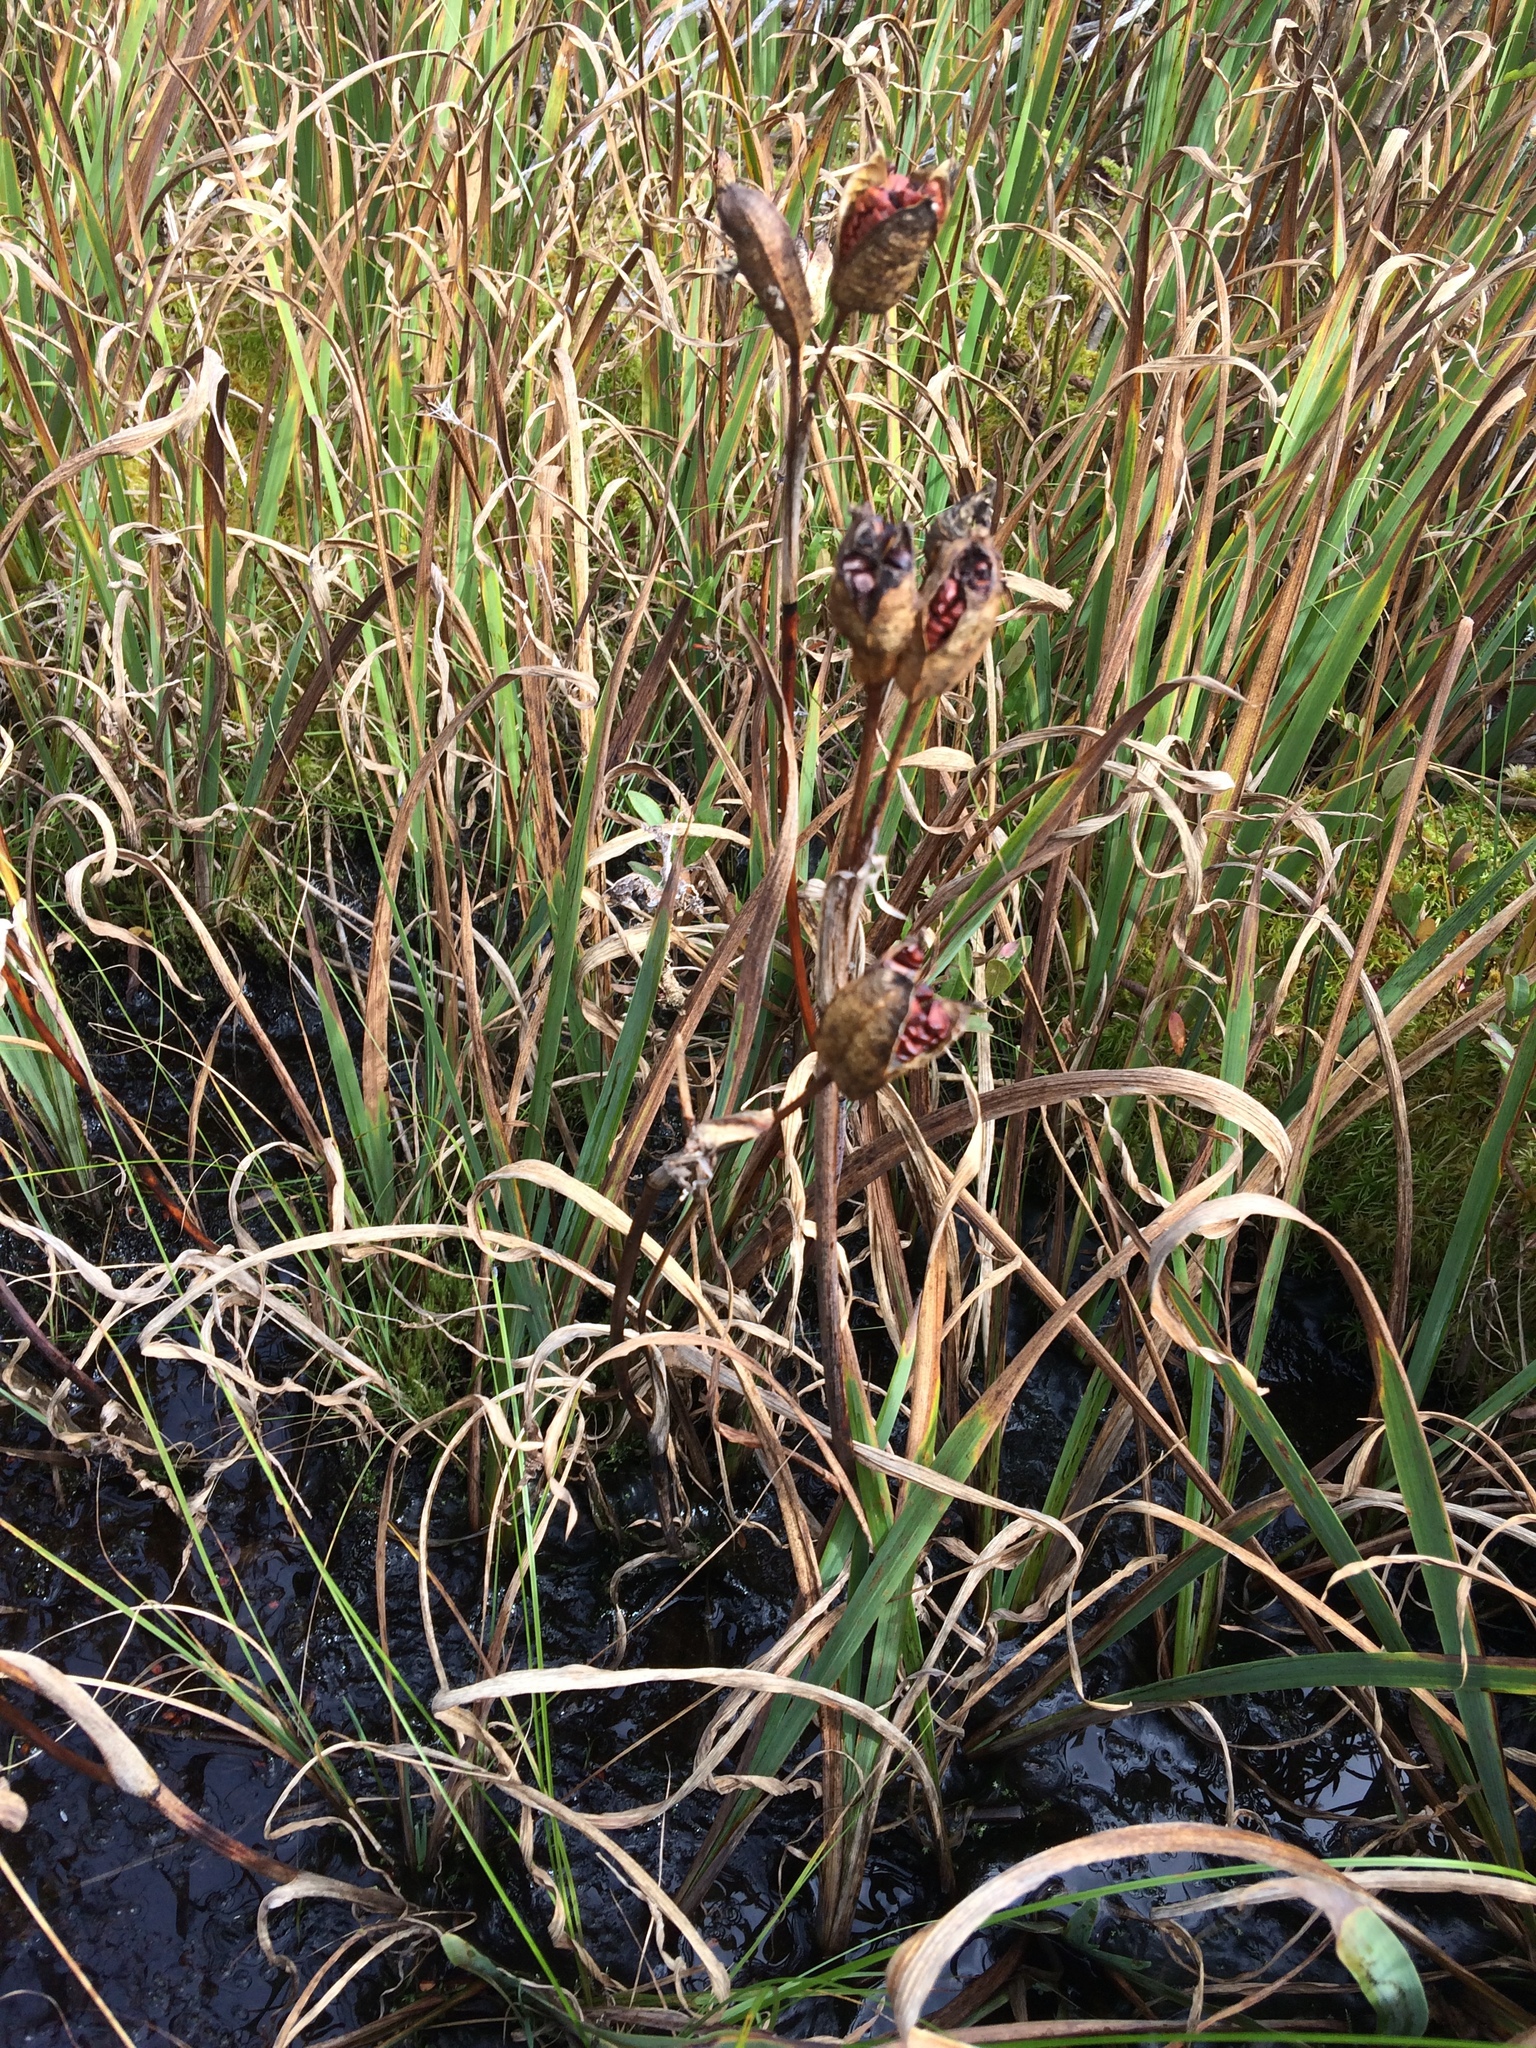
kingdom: Plantae
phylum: Tracheophyta
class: Liliopsida
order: Asparagales
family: Iridaceae
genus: Iris
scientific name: Iris versicolor
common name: Purple iris
